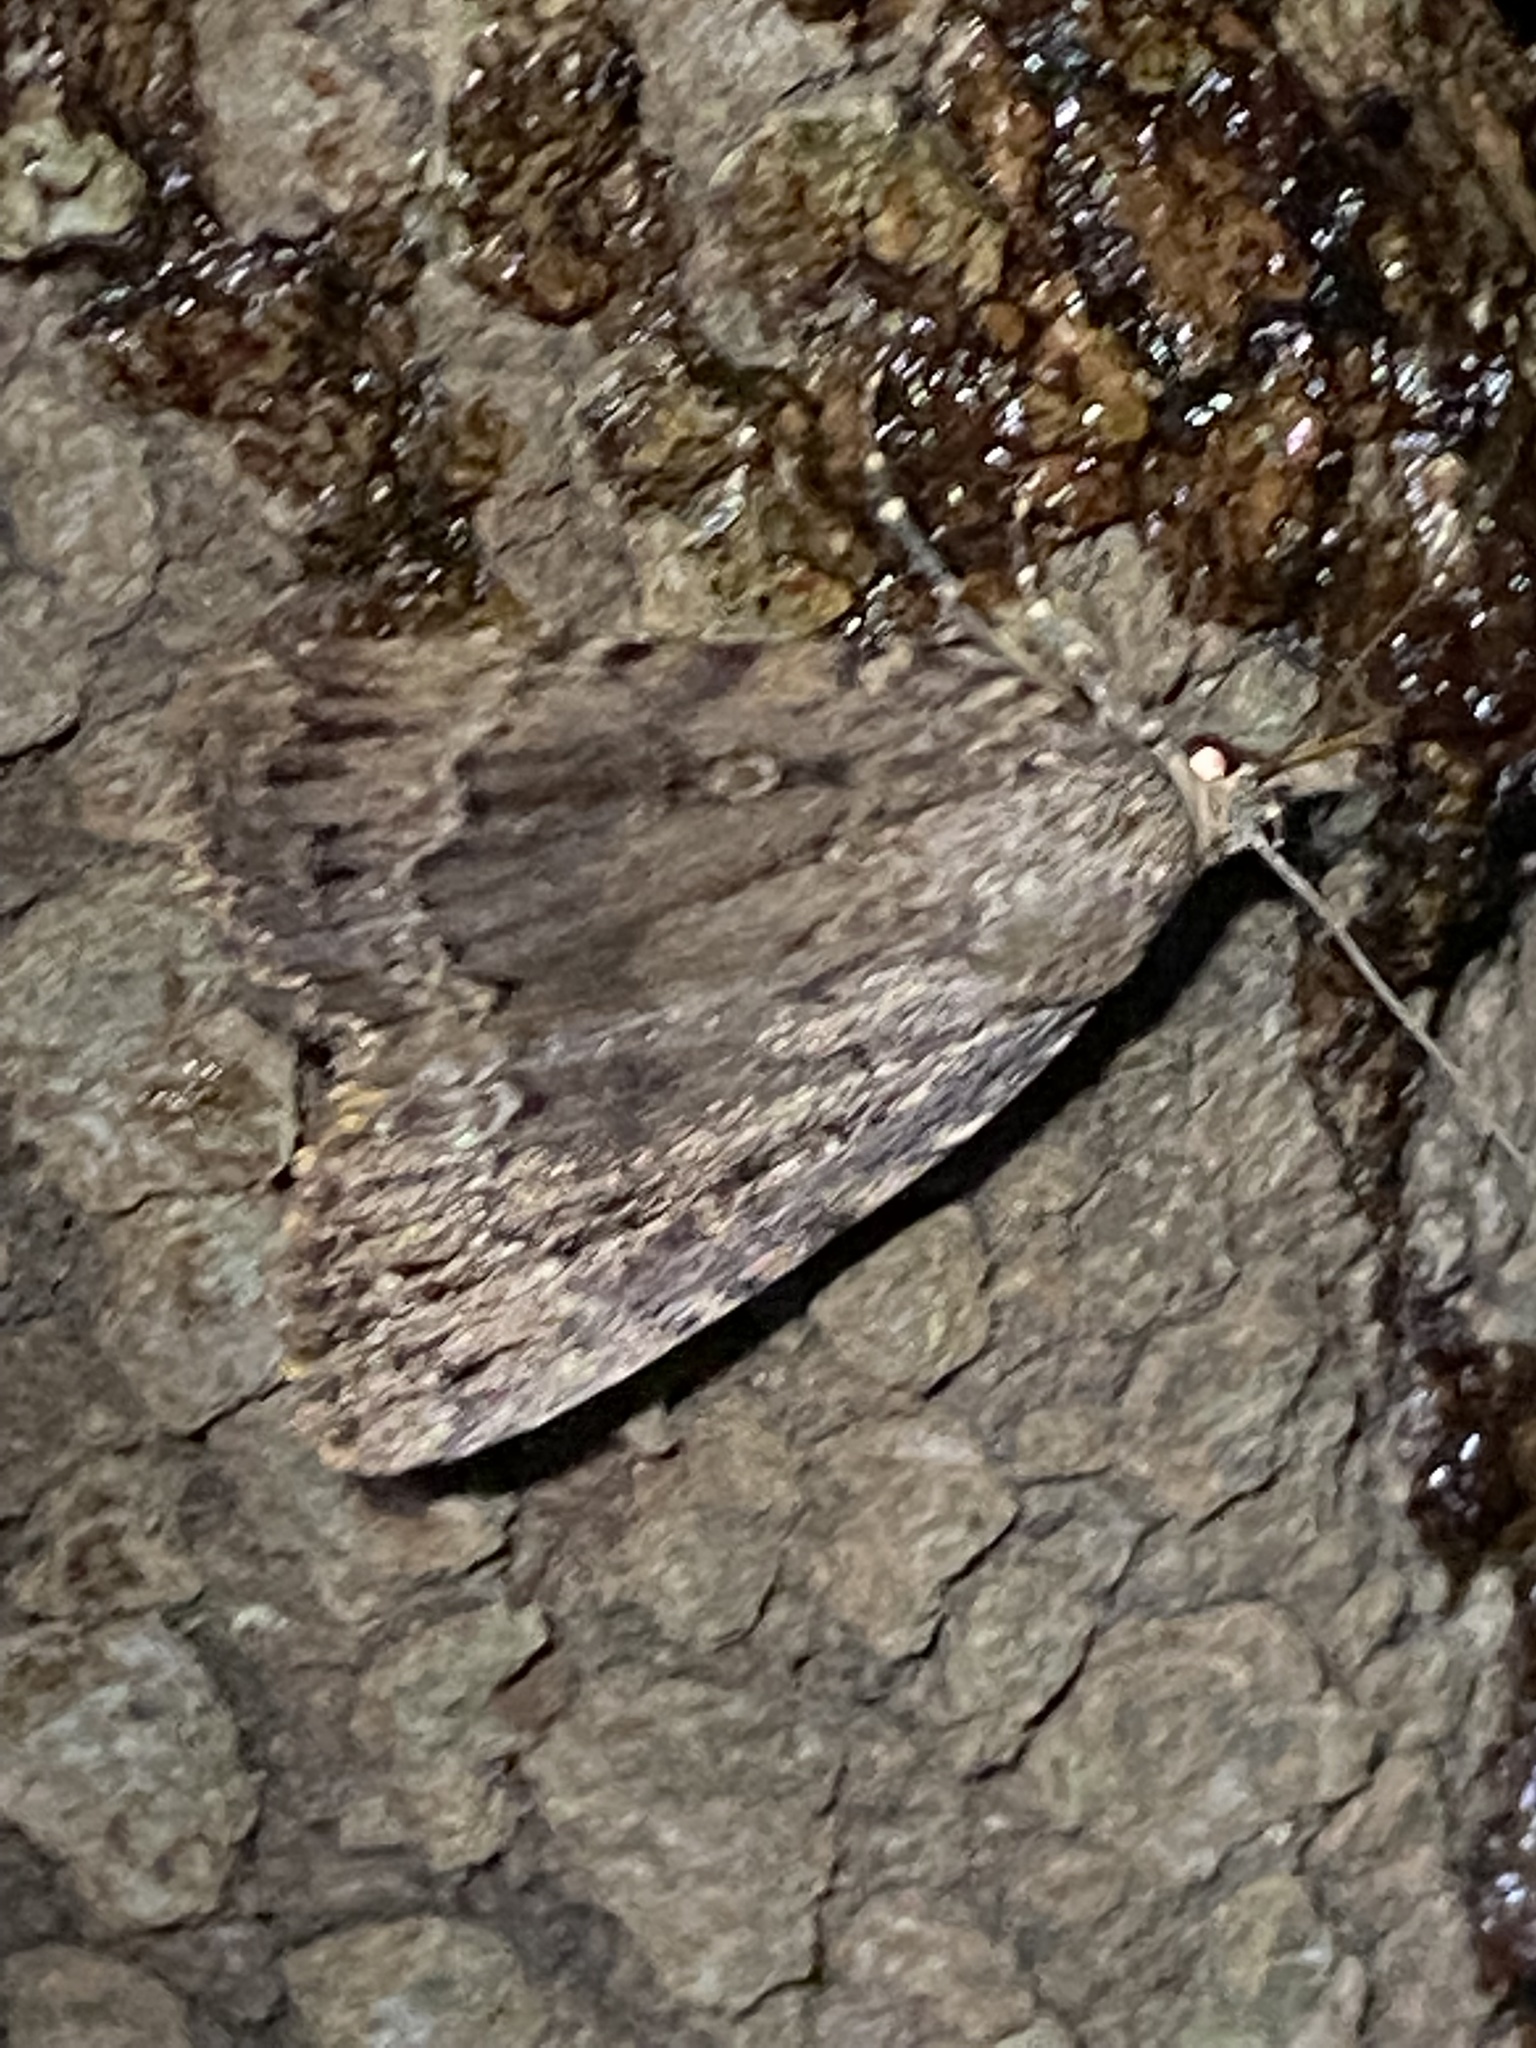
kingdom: Animalia
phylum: Arthropoda
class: Insecta
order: Lepidoptera
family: Noctuidae
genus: Amphipyra
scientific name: Amphipyra pyramidoides
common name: American copper underwing
